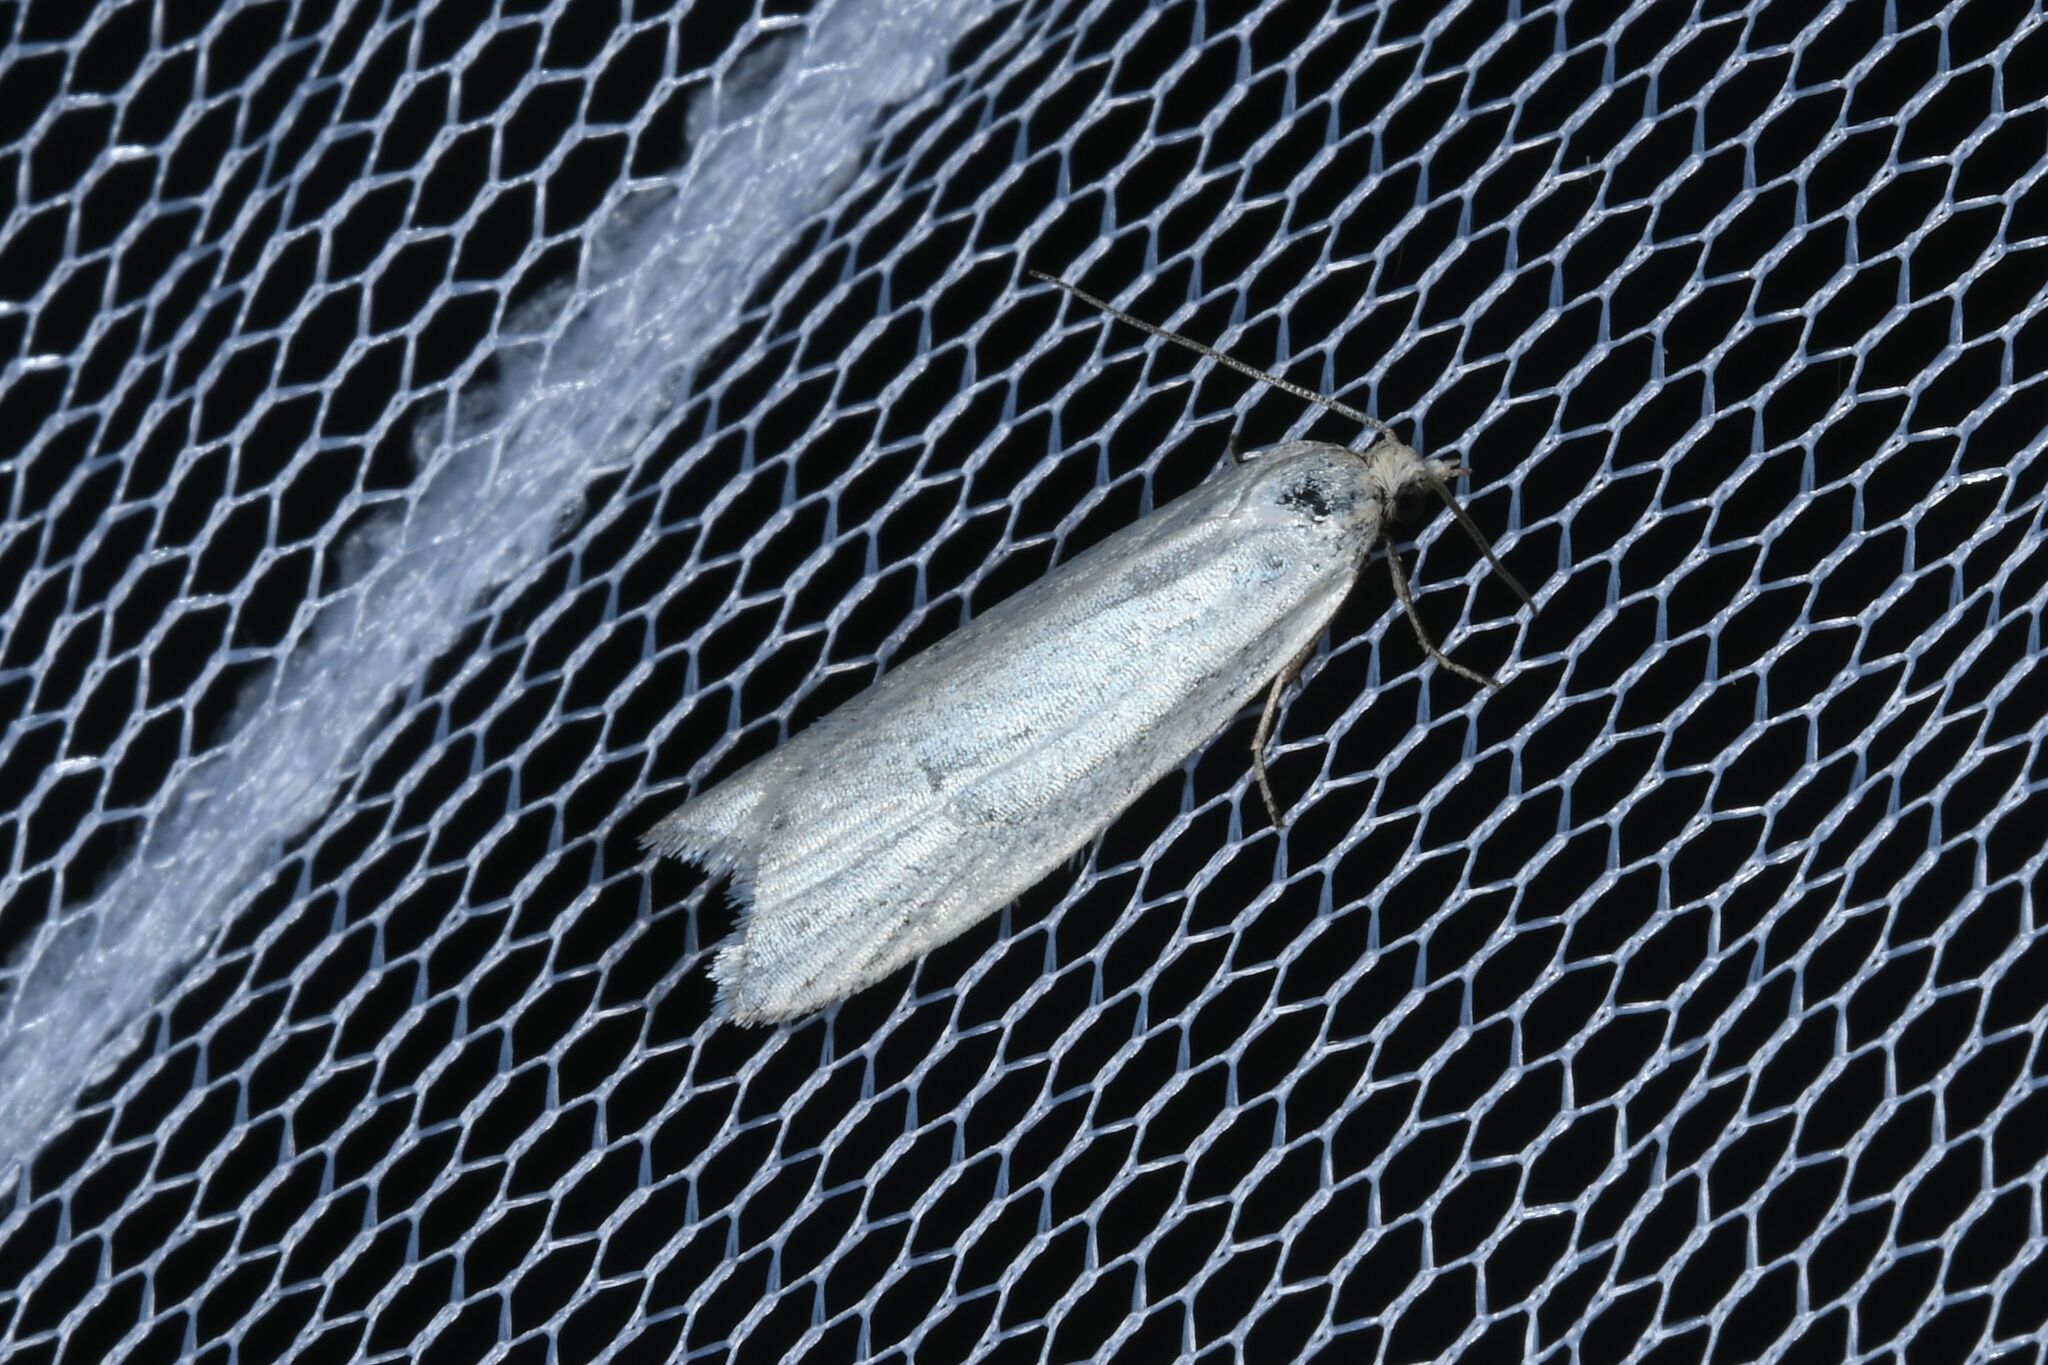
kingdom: Animalia
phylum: Arthropoda
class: Insecta
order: Lepidoptera
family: Tortricidae
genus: Eana
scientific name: Eana argentana
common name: Silver shade
